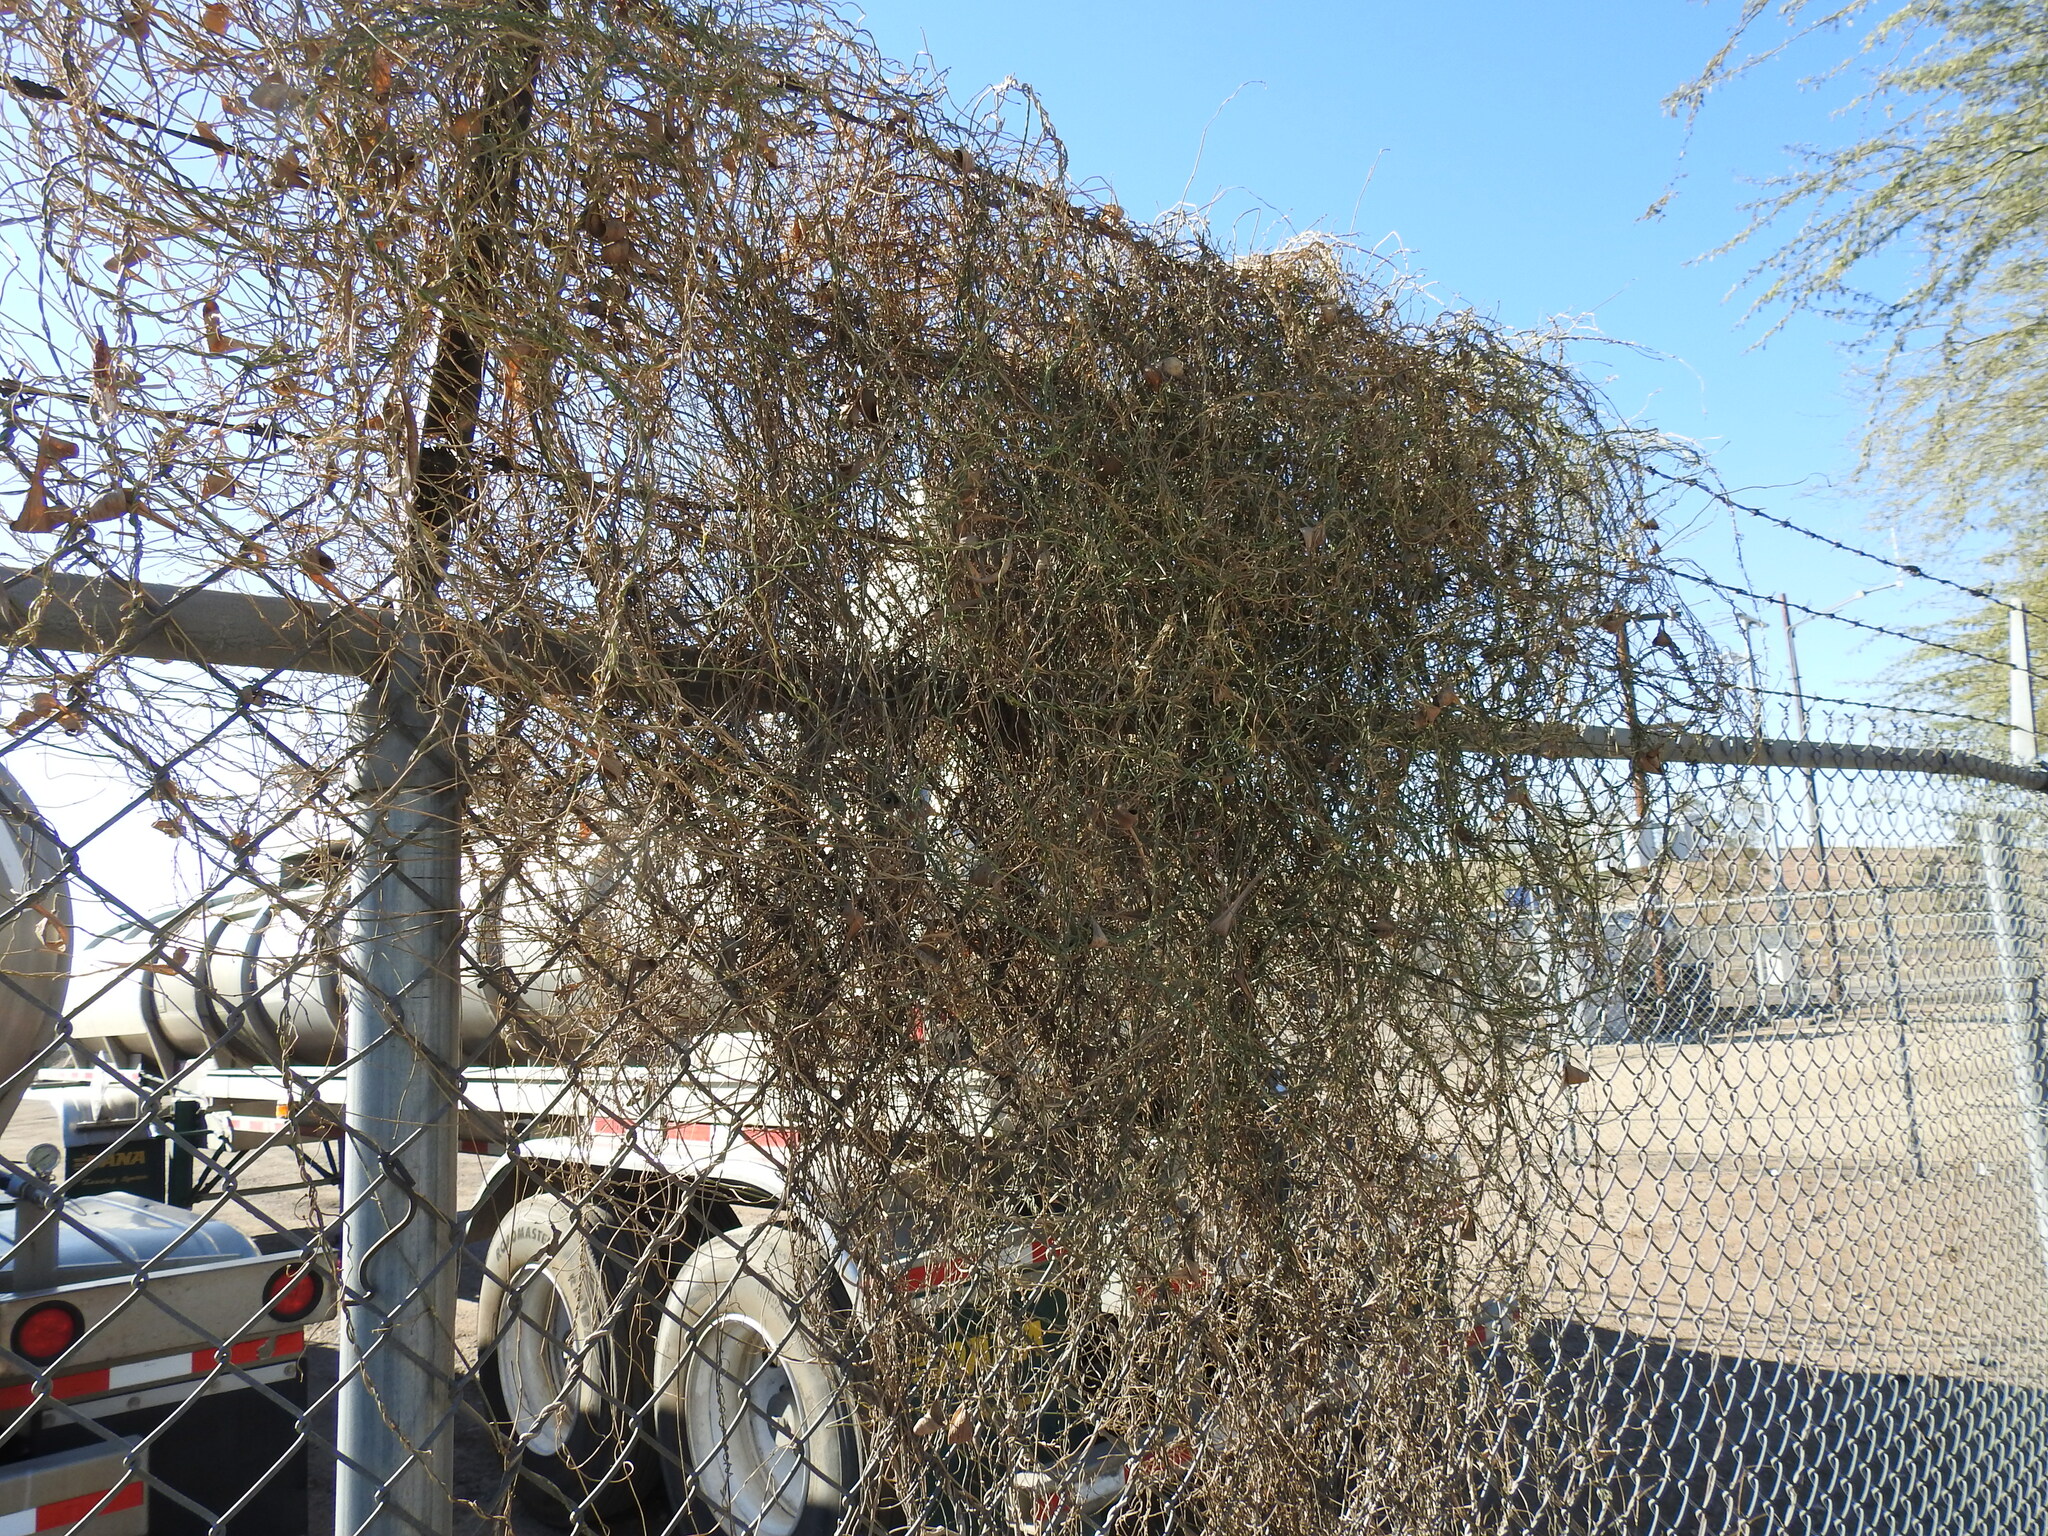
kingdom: Plantae
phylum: Tracheophyta
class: Magnoliopsida
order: Gentianales
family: Apocynaceae
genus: Funastrum
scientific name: Funastrum heterophyllum
